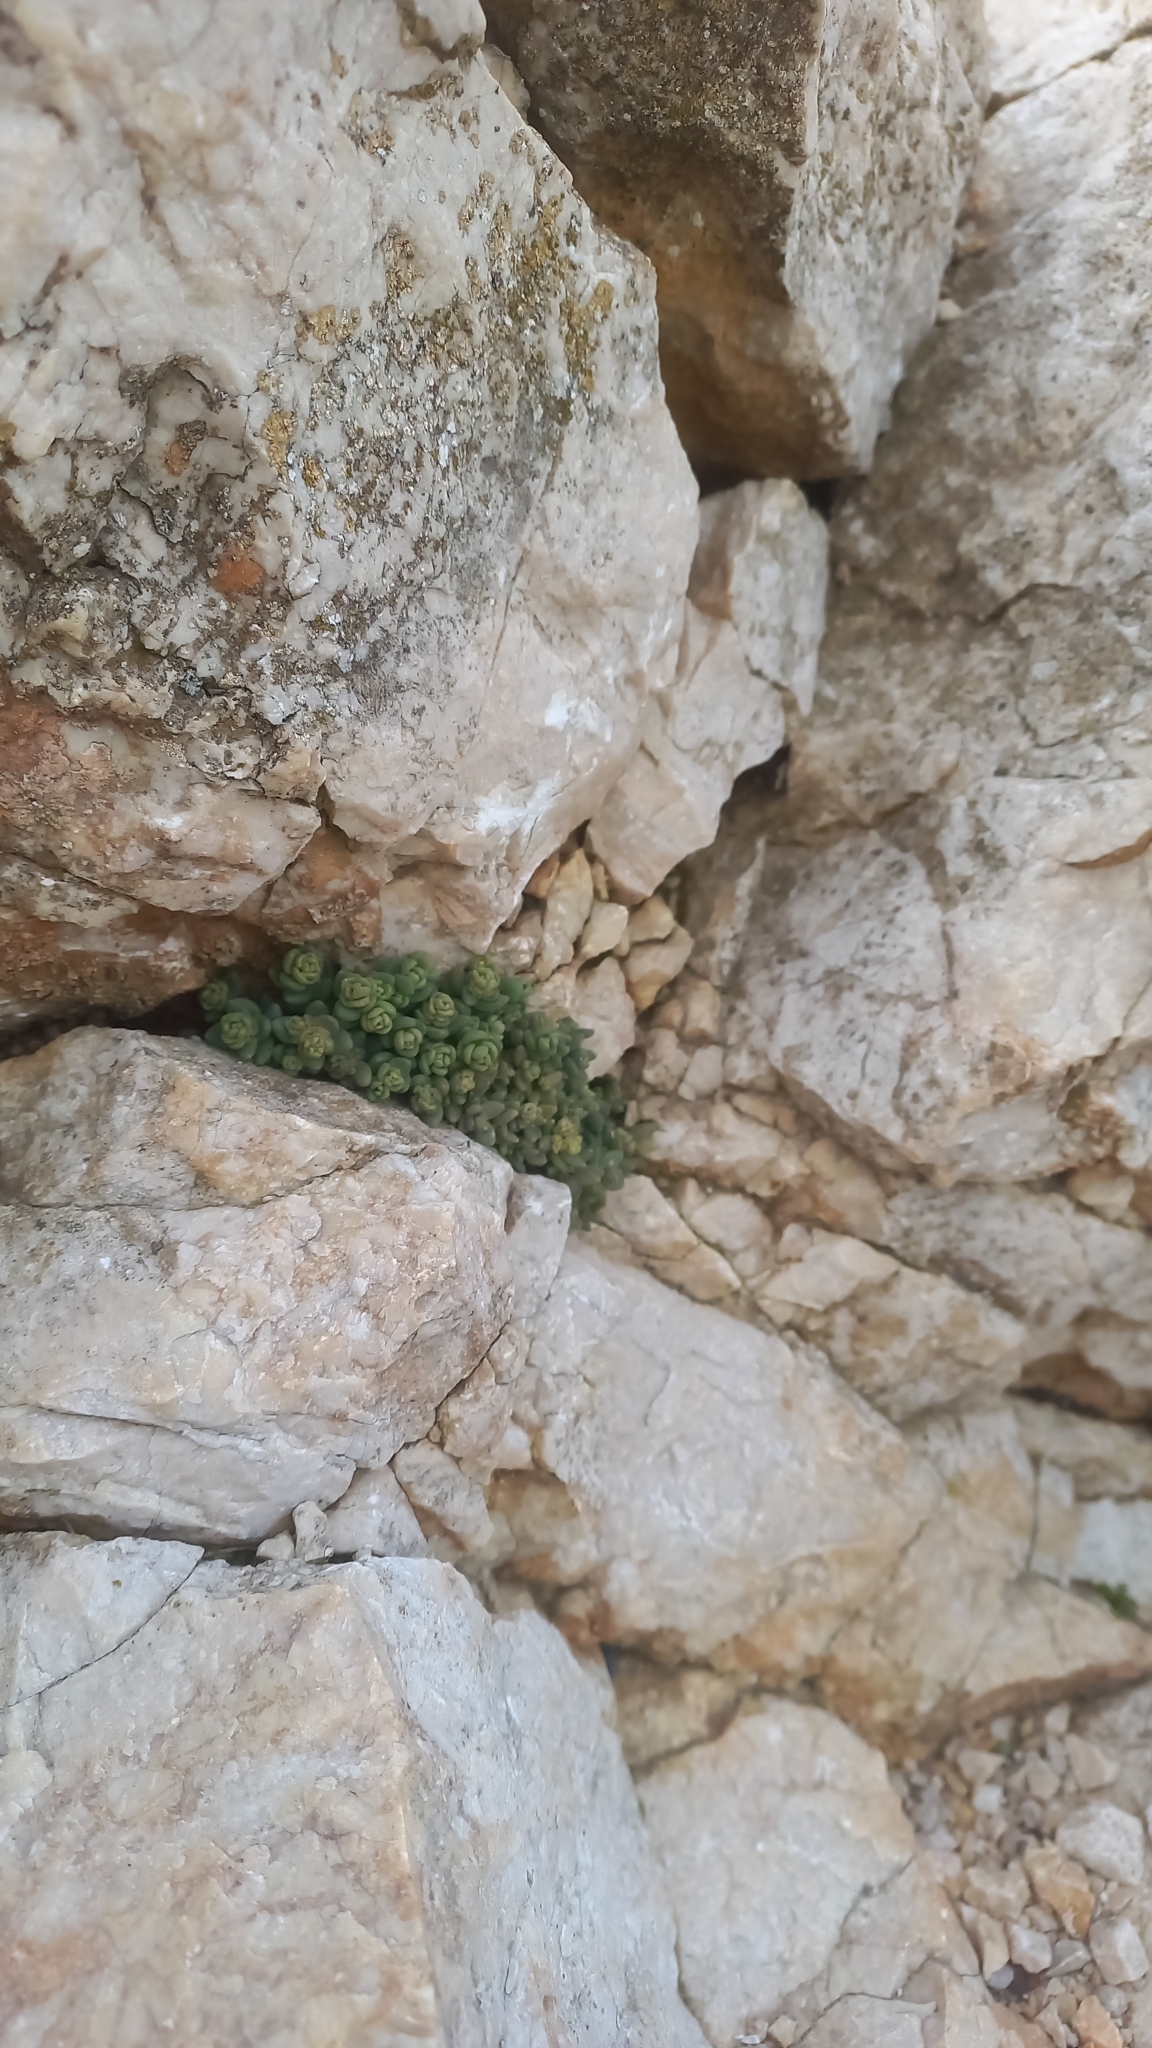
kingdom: Plantae
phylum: Tracheophyta
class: Magnoliopsida
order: Saxifragales
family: Crassulaceae
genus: Sedum
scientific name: Sedum dasyphyllum
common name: Thick-leaf stonecrop
